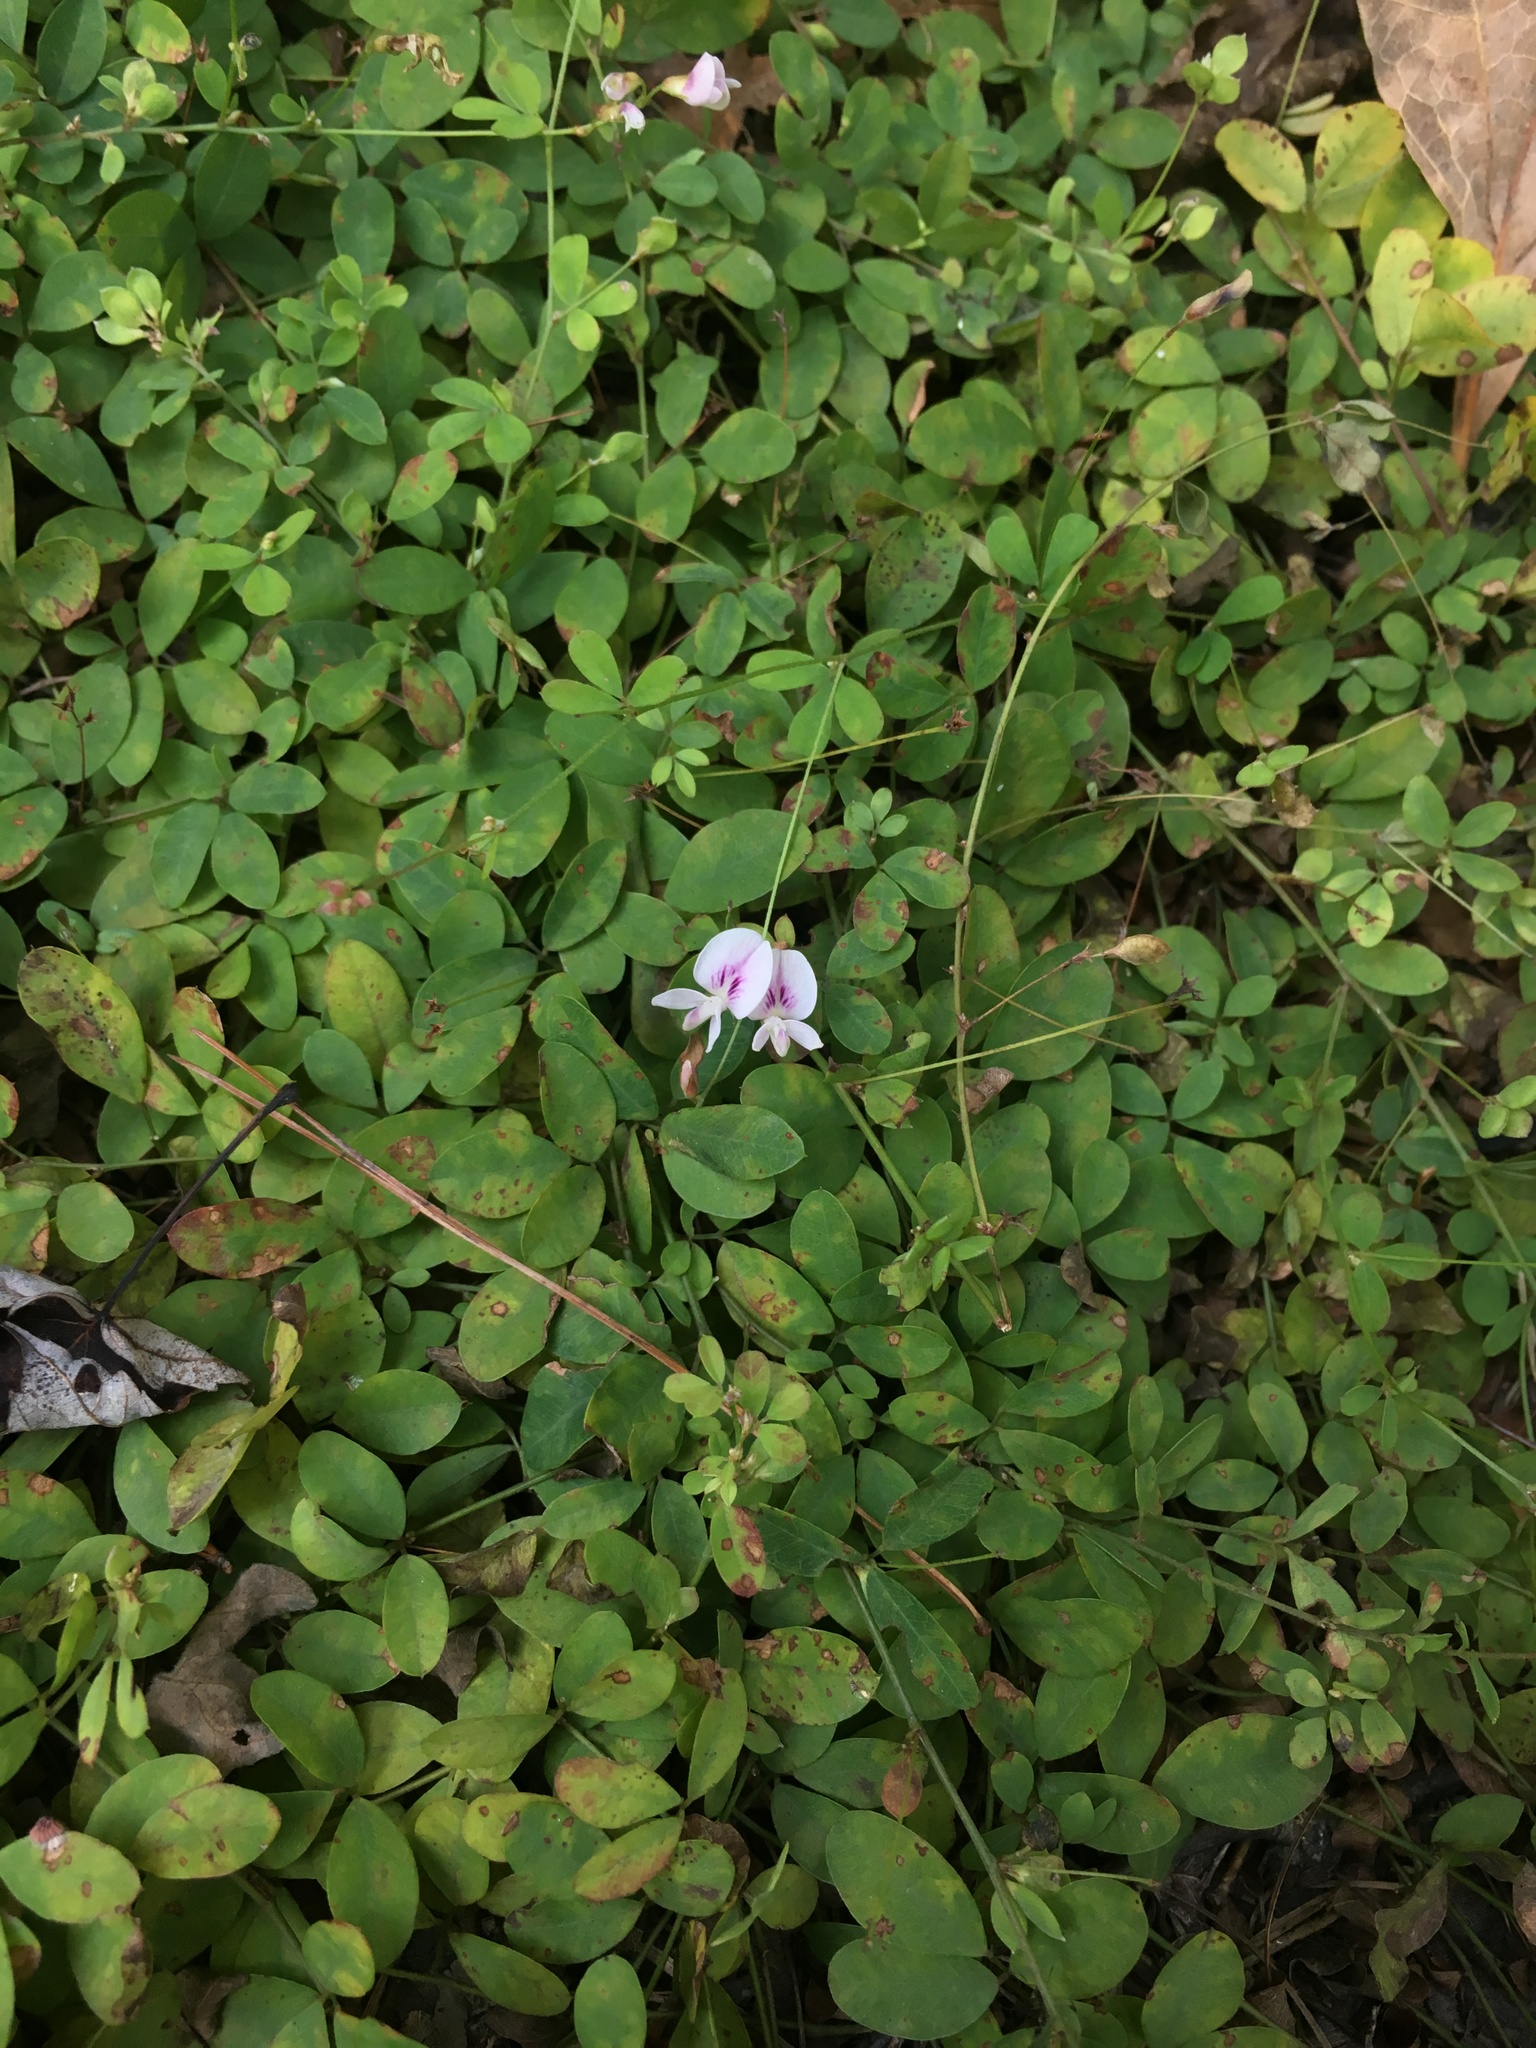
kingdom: Plantae
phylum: Tracheophyta
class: Magnoliopsida
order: Fabales
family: Fabaceae
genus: Lespedeza
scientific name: Lespedeza repens
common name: Creeping bush-clover
